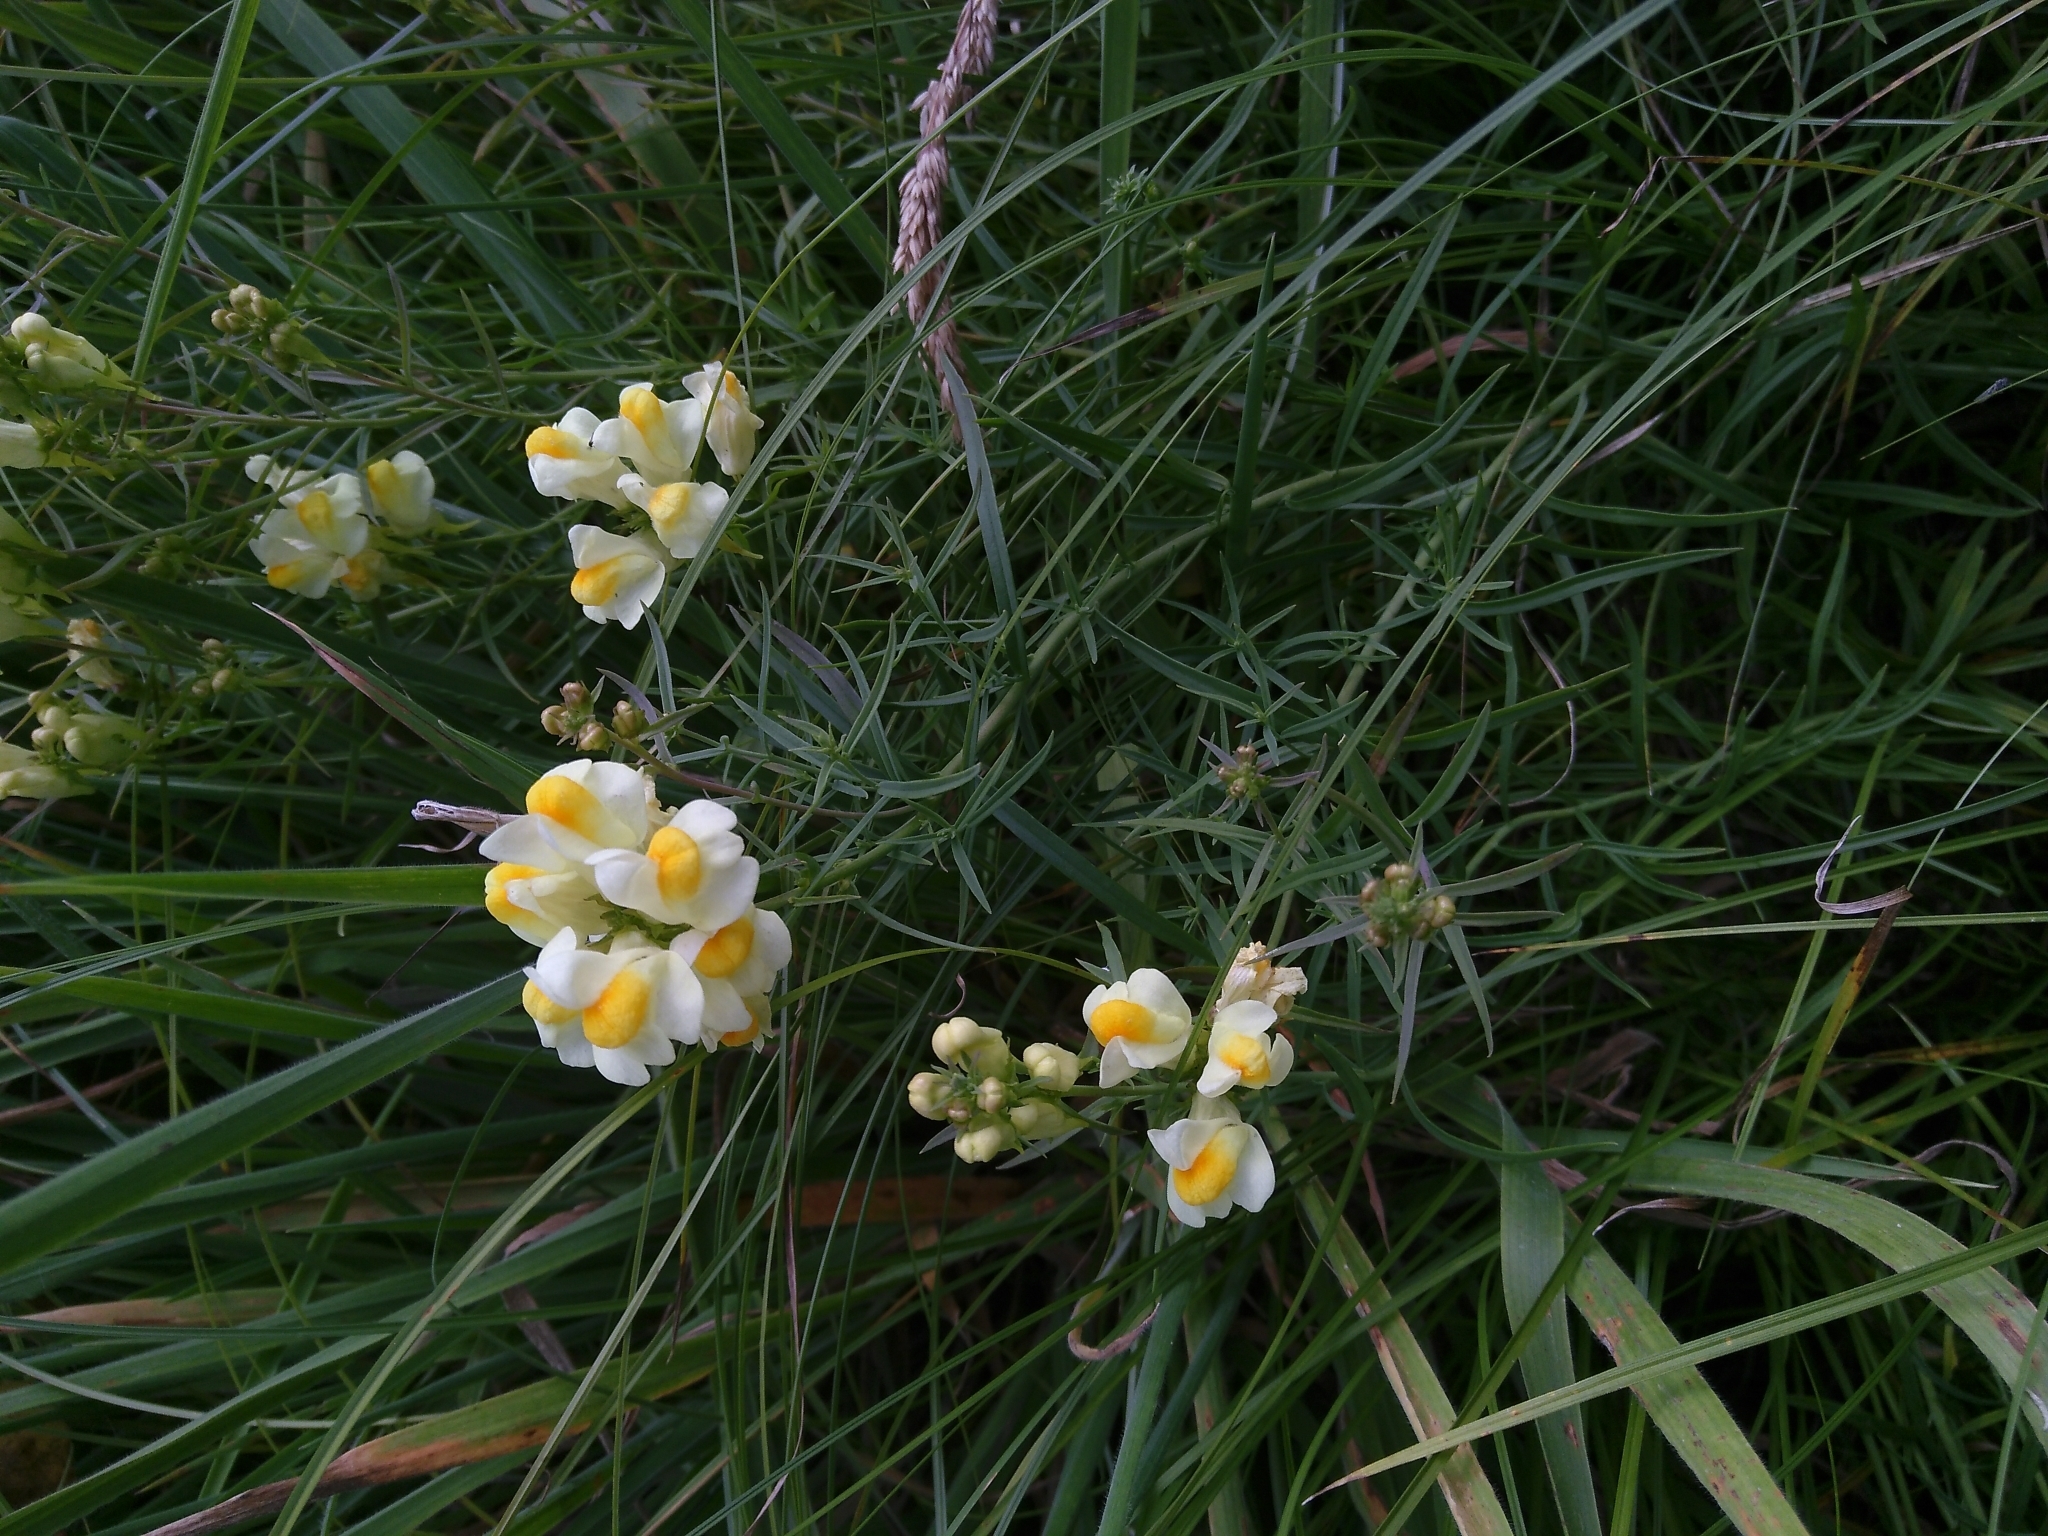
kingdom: Plantae
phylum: Tracheophyta
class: Magnoliopsida
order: Lamiales
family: Plantaginaceae
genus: Linaria
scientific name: Linaria vulgaris
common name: Butter and eggs
